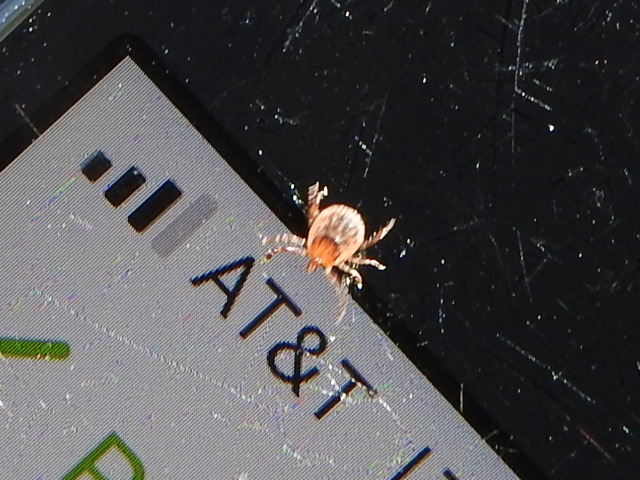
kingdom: Animalia
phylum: Arthropoda
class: Arachnida
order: Ixodida
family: Ixodidae
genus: Amblyomma
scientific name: Amblyomma americanum
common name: Lone star tick
